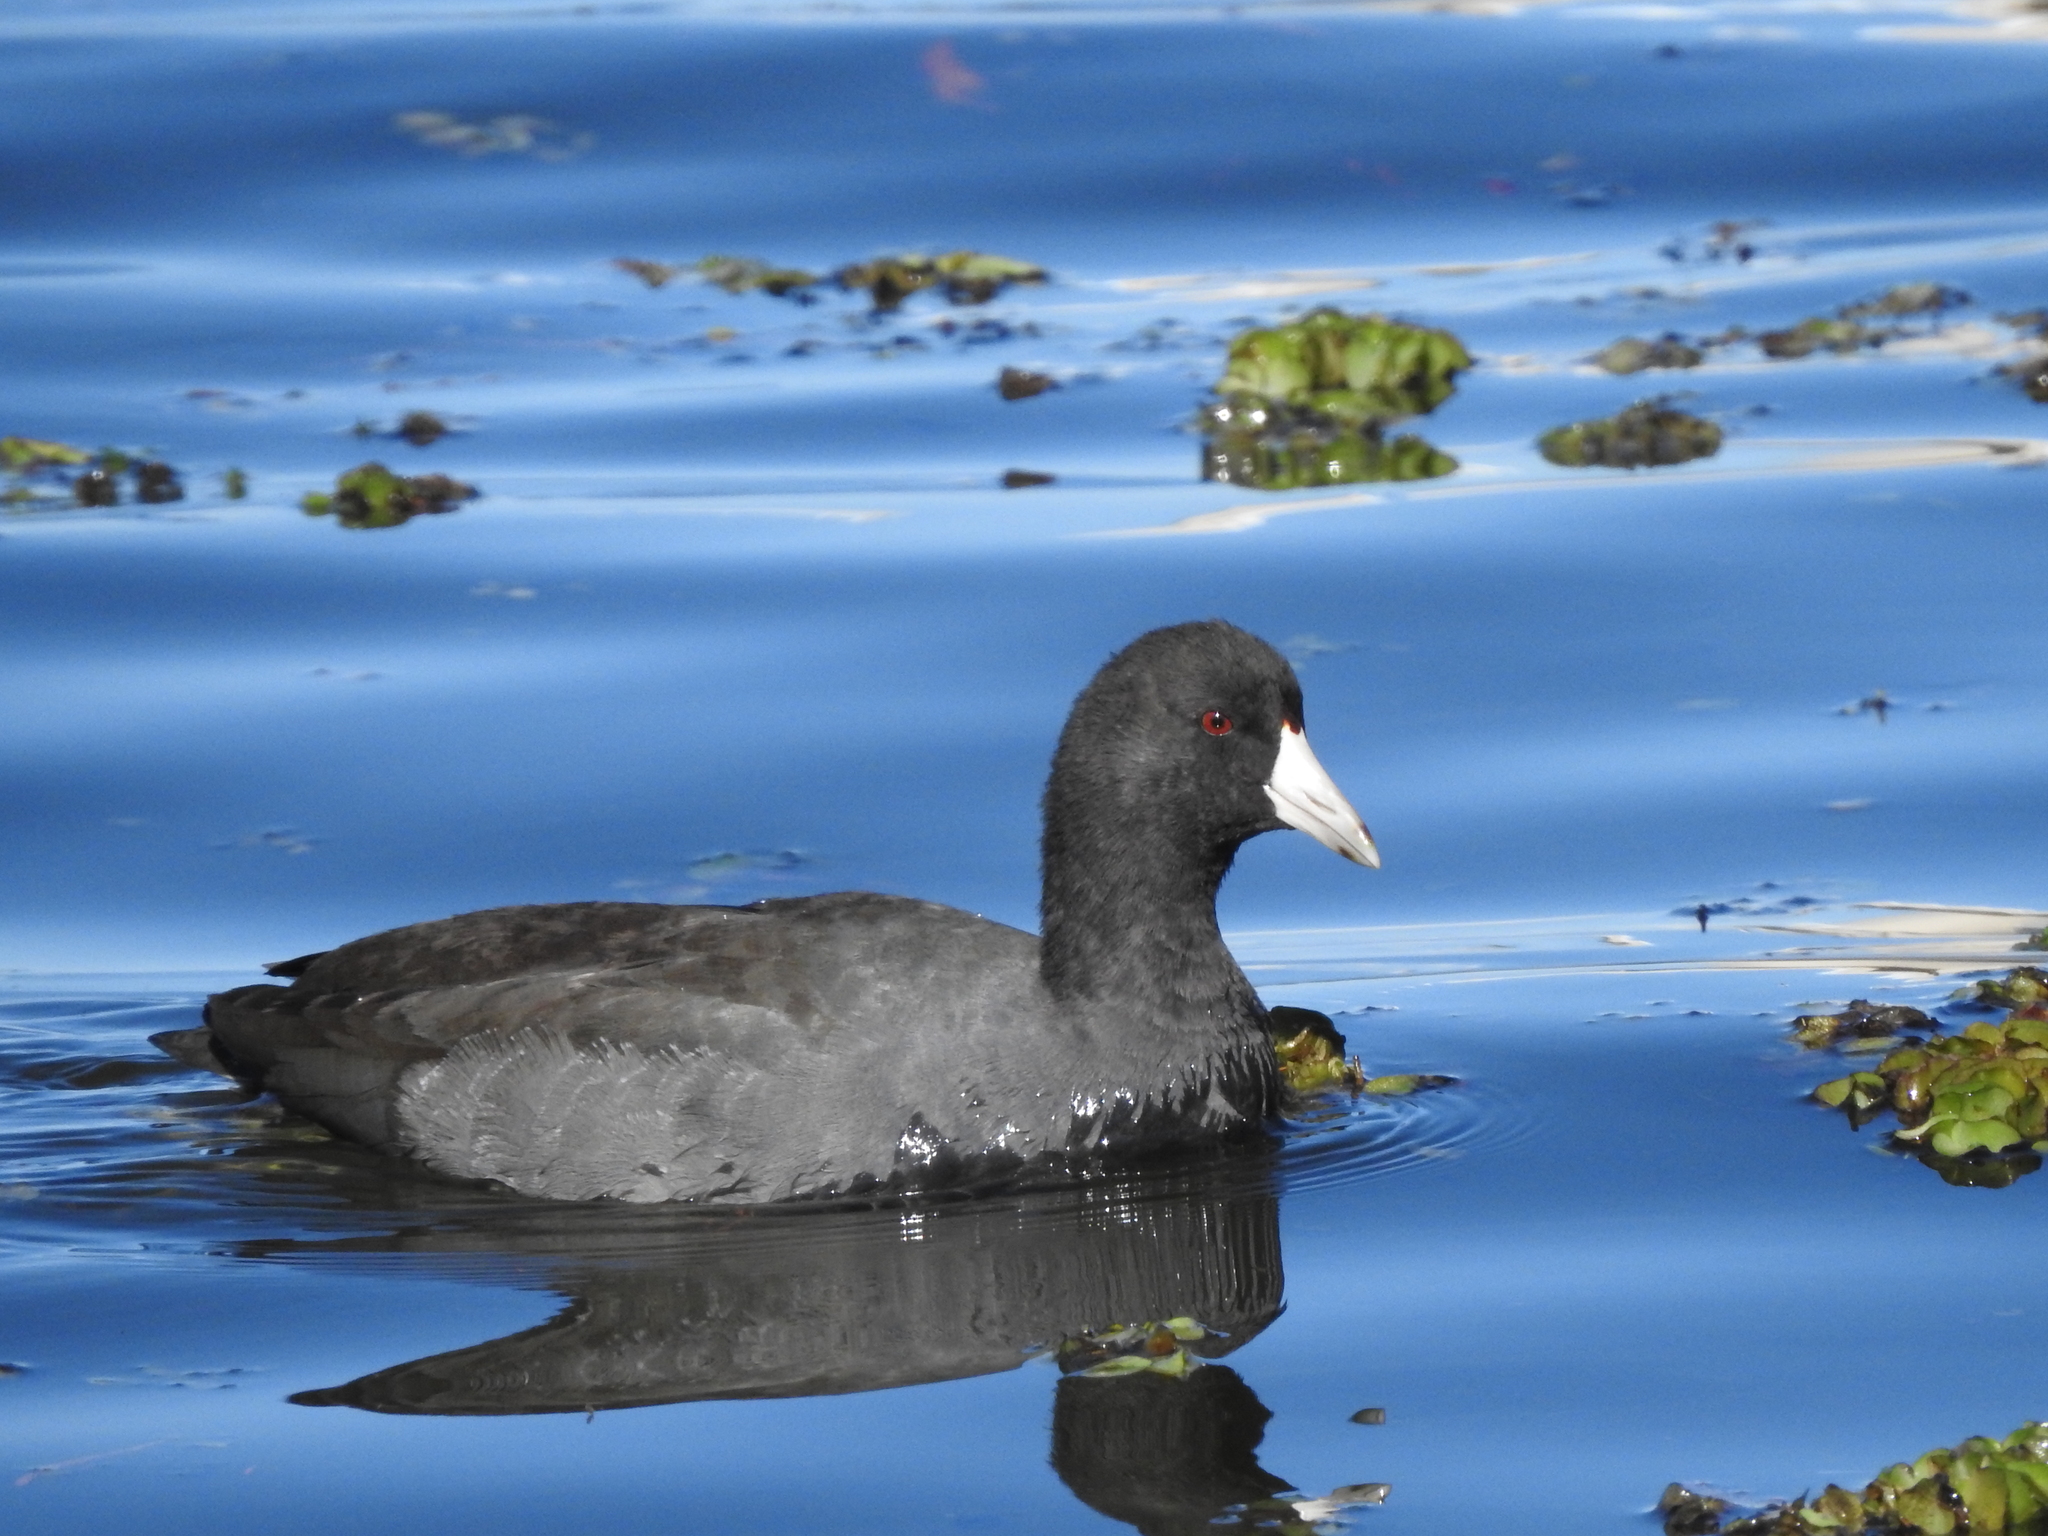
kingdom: Animalia
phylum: Chordata
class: Aves
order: Gruiformes
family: Rallidae
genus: Fulica
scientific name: Fulica americana
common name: American coot
